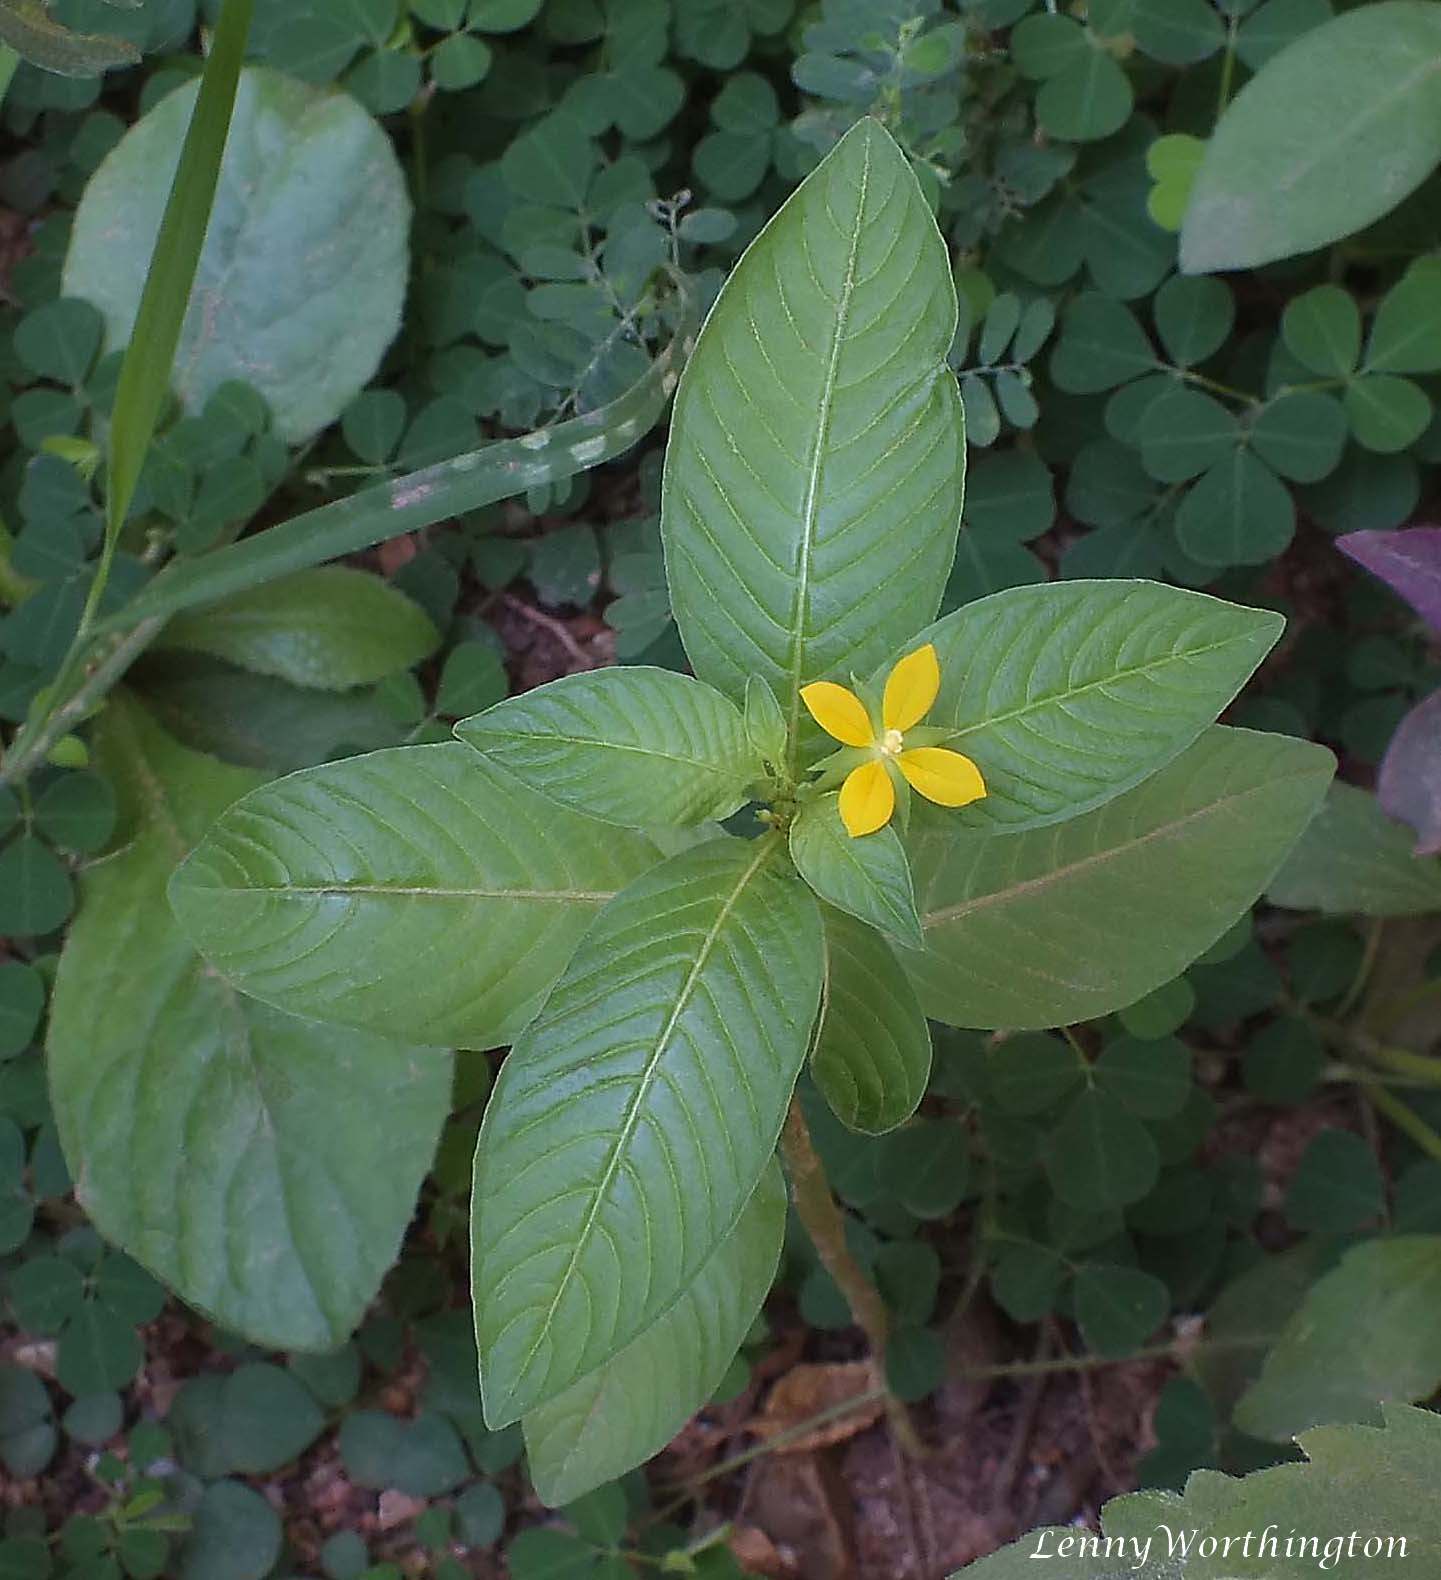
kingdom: Plantae
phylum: Tracheophyta
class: Magnoliopsida
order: Myrtales
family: Onagraceae
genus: Ludwigia
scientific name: Ludwigia hyssopifolia
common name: Linear leaf water primrose
